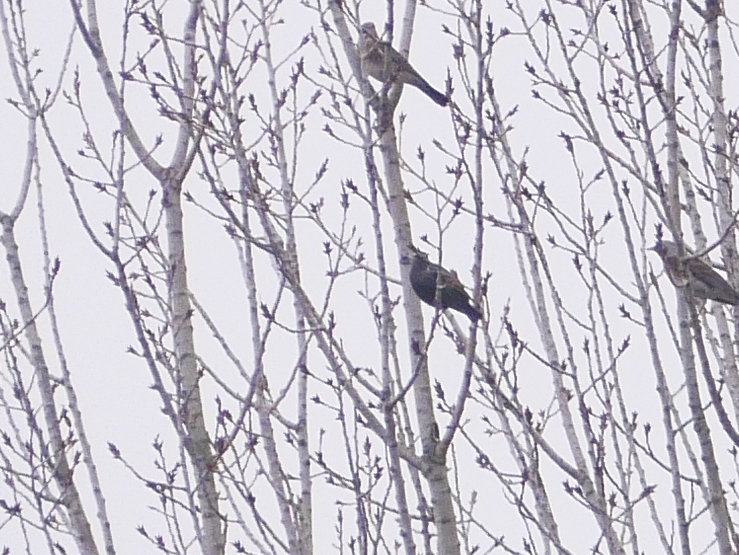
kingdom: Animalia
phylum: Chordata
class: Aves
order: Passeriformes
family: Sturnidae
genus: Sturnus
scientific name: Sturnus vulgaris
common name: Common starling
